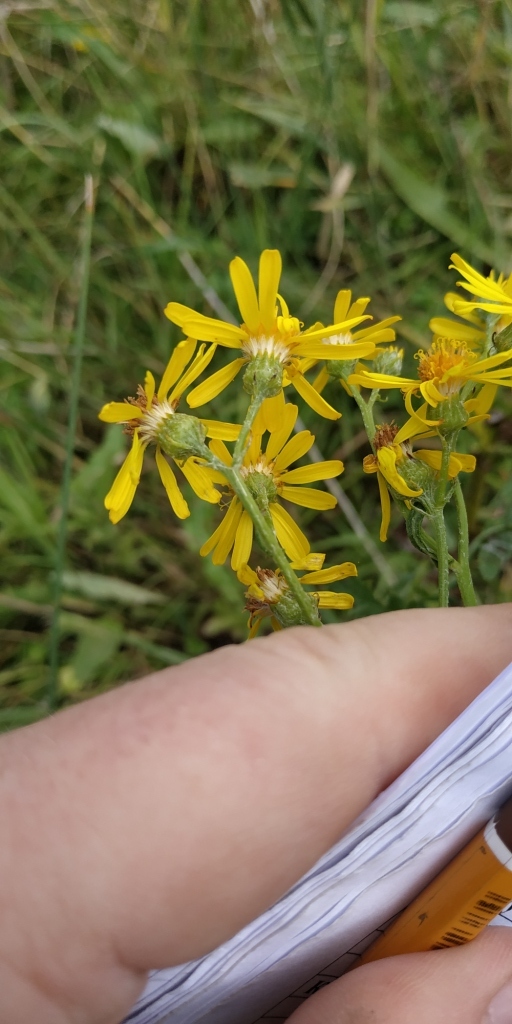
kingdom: Plantae
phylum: Tracheophyta
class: Magnoliopsida
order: Asterales
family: Asteraceae
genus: Jacobaea
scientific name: Jacobaea vulgaris
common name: Stinking willie
